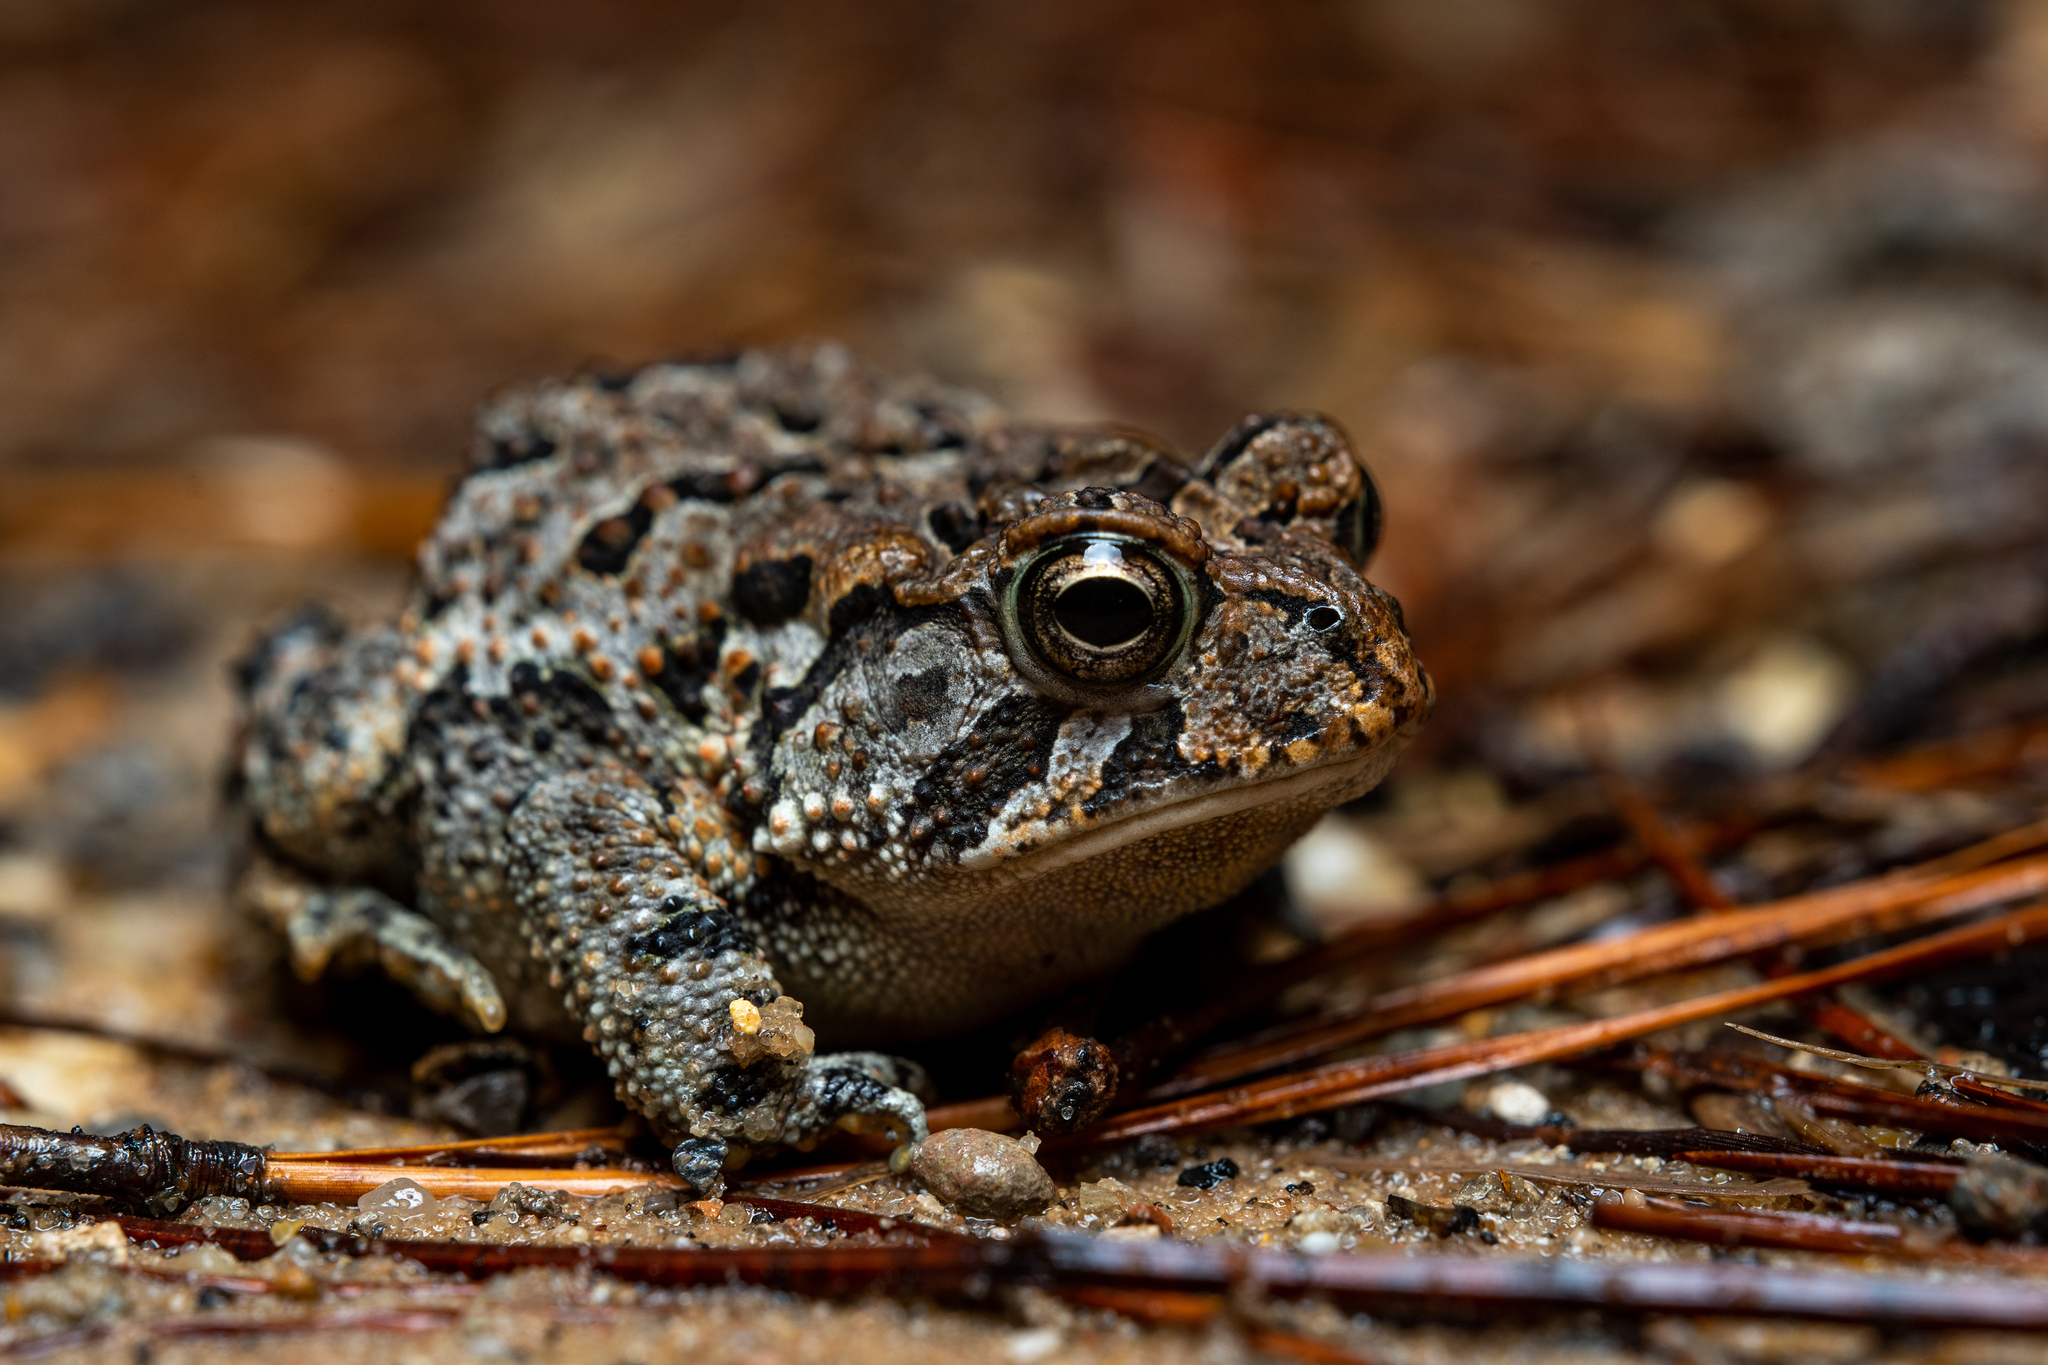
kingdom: Animalia
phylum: Chordata
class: Amphibia
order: Anura
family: Bufonidae
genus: Anaxyrus
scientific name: Anaxyrus terrestris
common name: Southern toad
